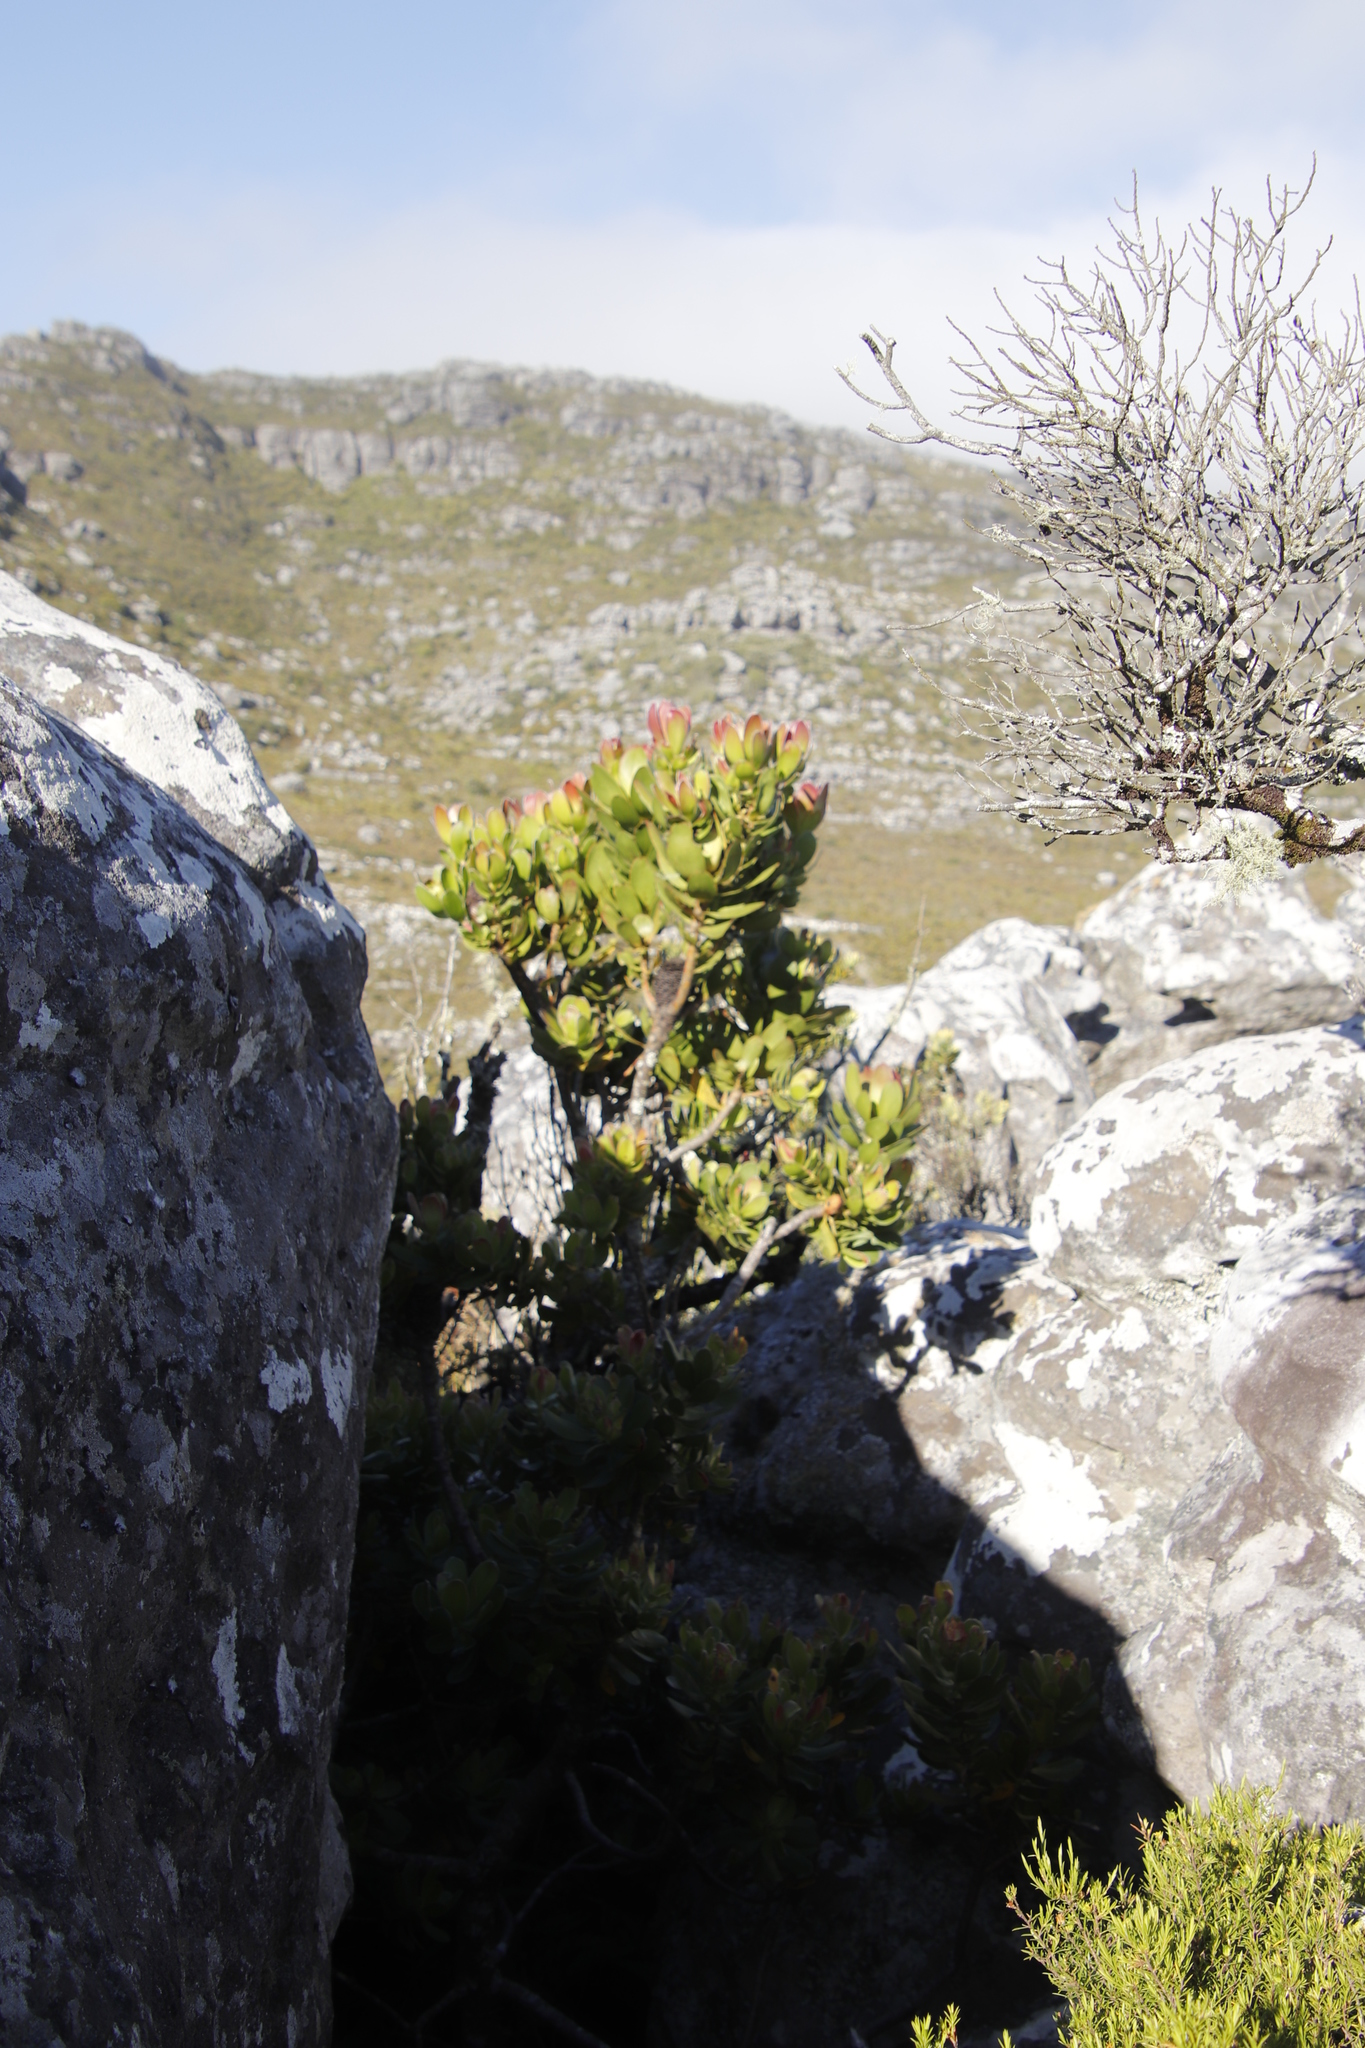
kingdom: Plantae
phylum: Tracheophyta
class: Magnoliopsida
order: Proteales
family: Proteaceae
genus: Leucadendron
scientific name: Leucadendron strobilinum
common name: Mountain rose
